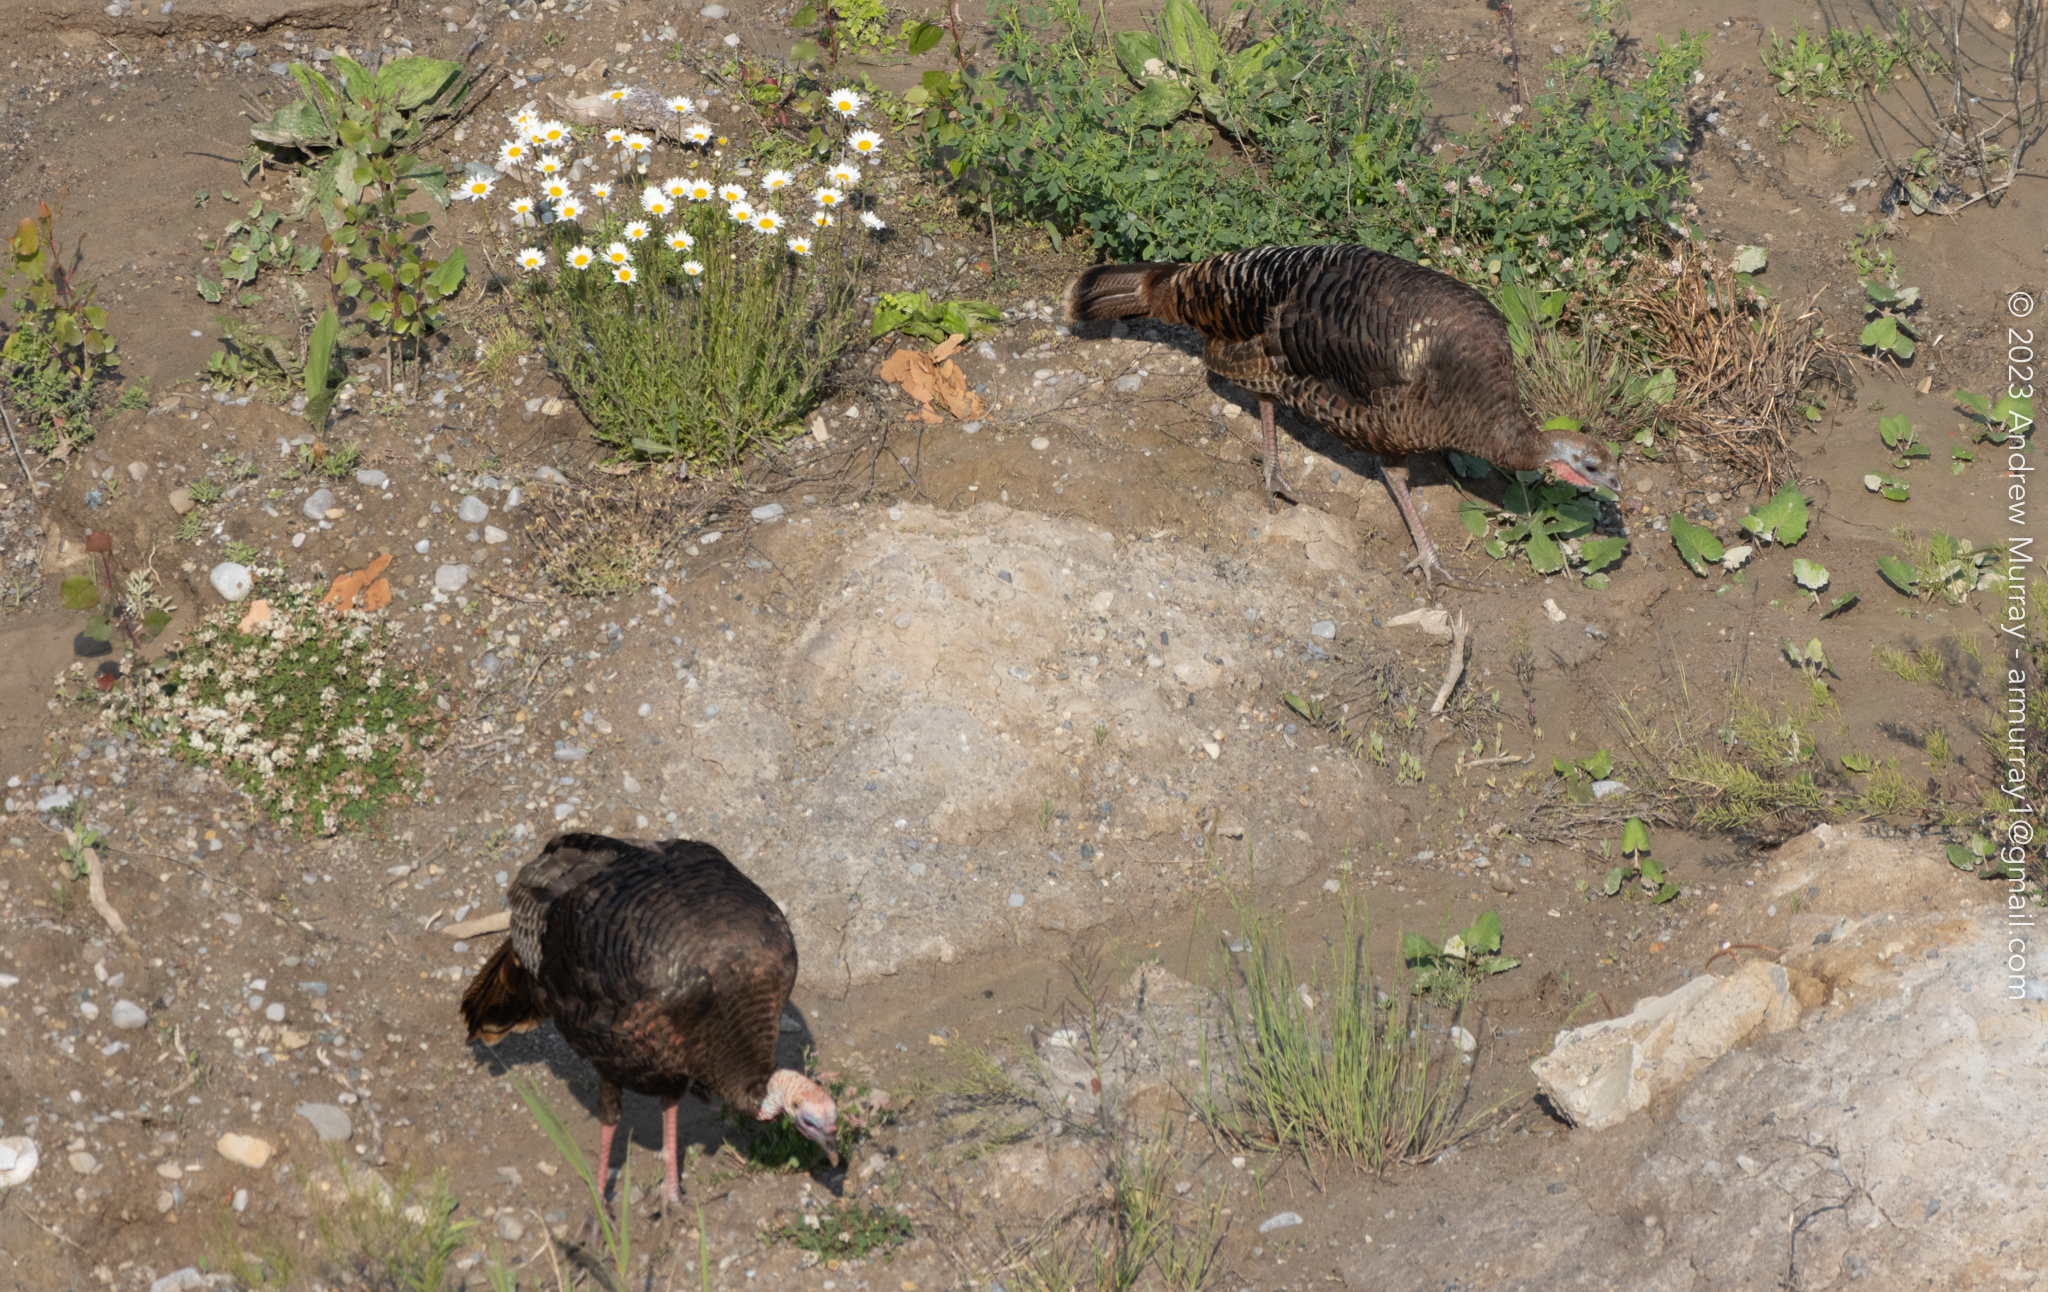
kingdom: Animalia
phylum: Chordata
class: Aves
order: Galliformes
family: Phasianidae
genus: Meleagris
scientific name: Meleagris gallopavo
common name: Wild turkey
